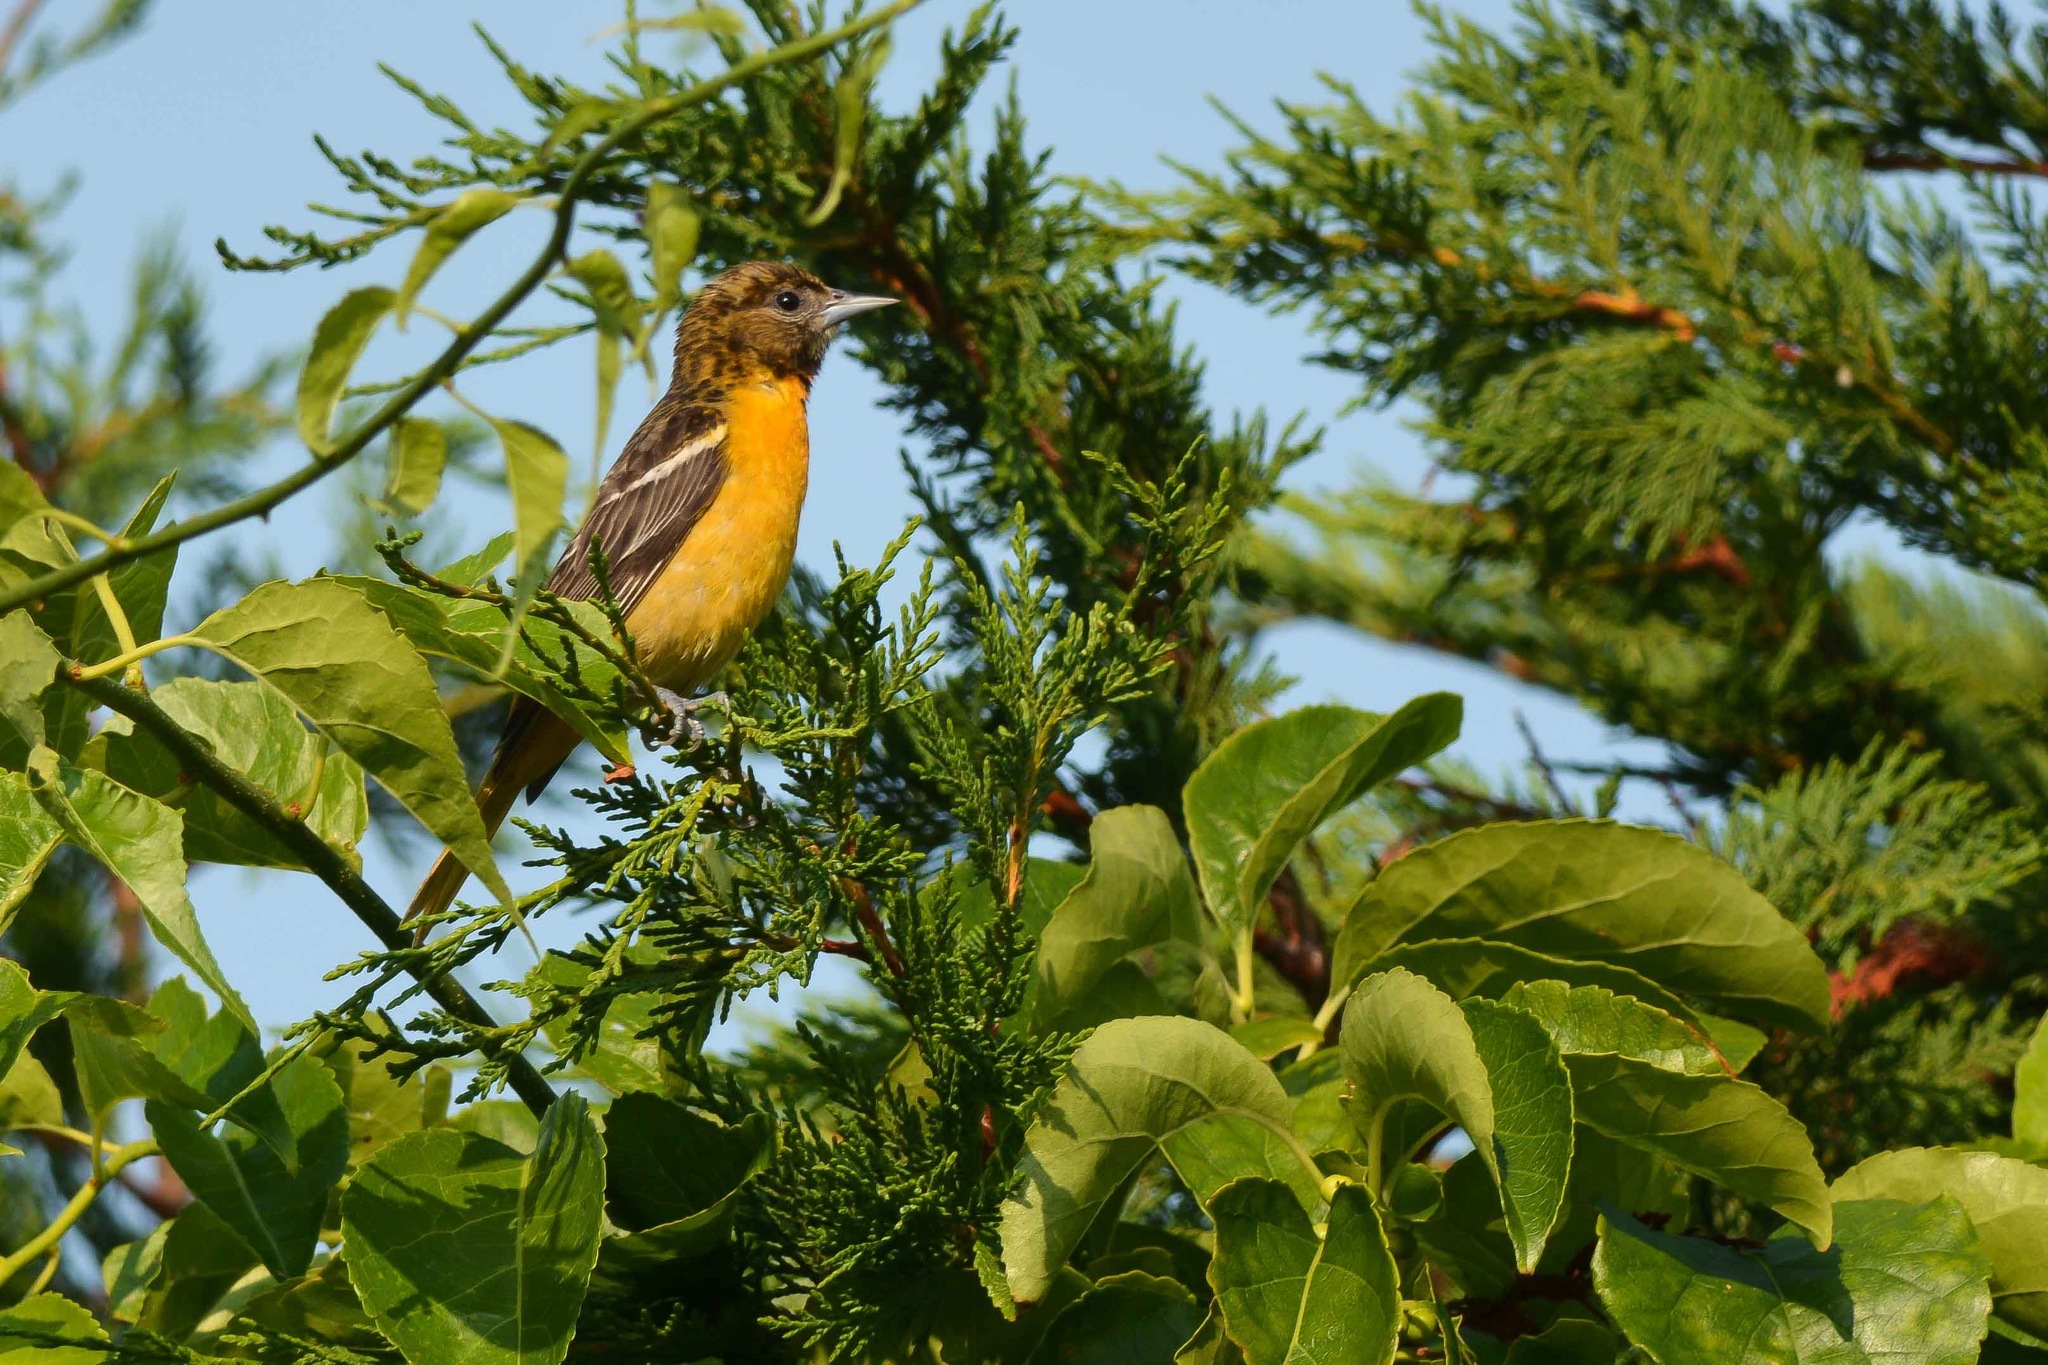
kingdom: Animalia
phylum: Chordata
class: Aves
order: Passeriformes
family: Icteridae
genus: Icterus
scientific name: Icterus galbula
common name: Baltimore oriole
